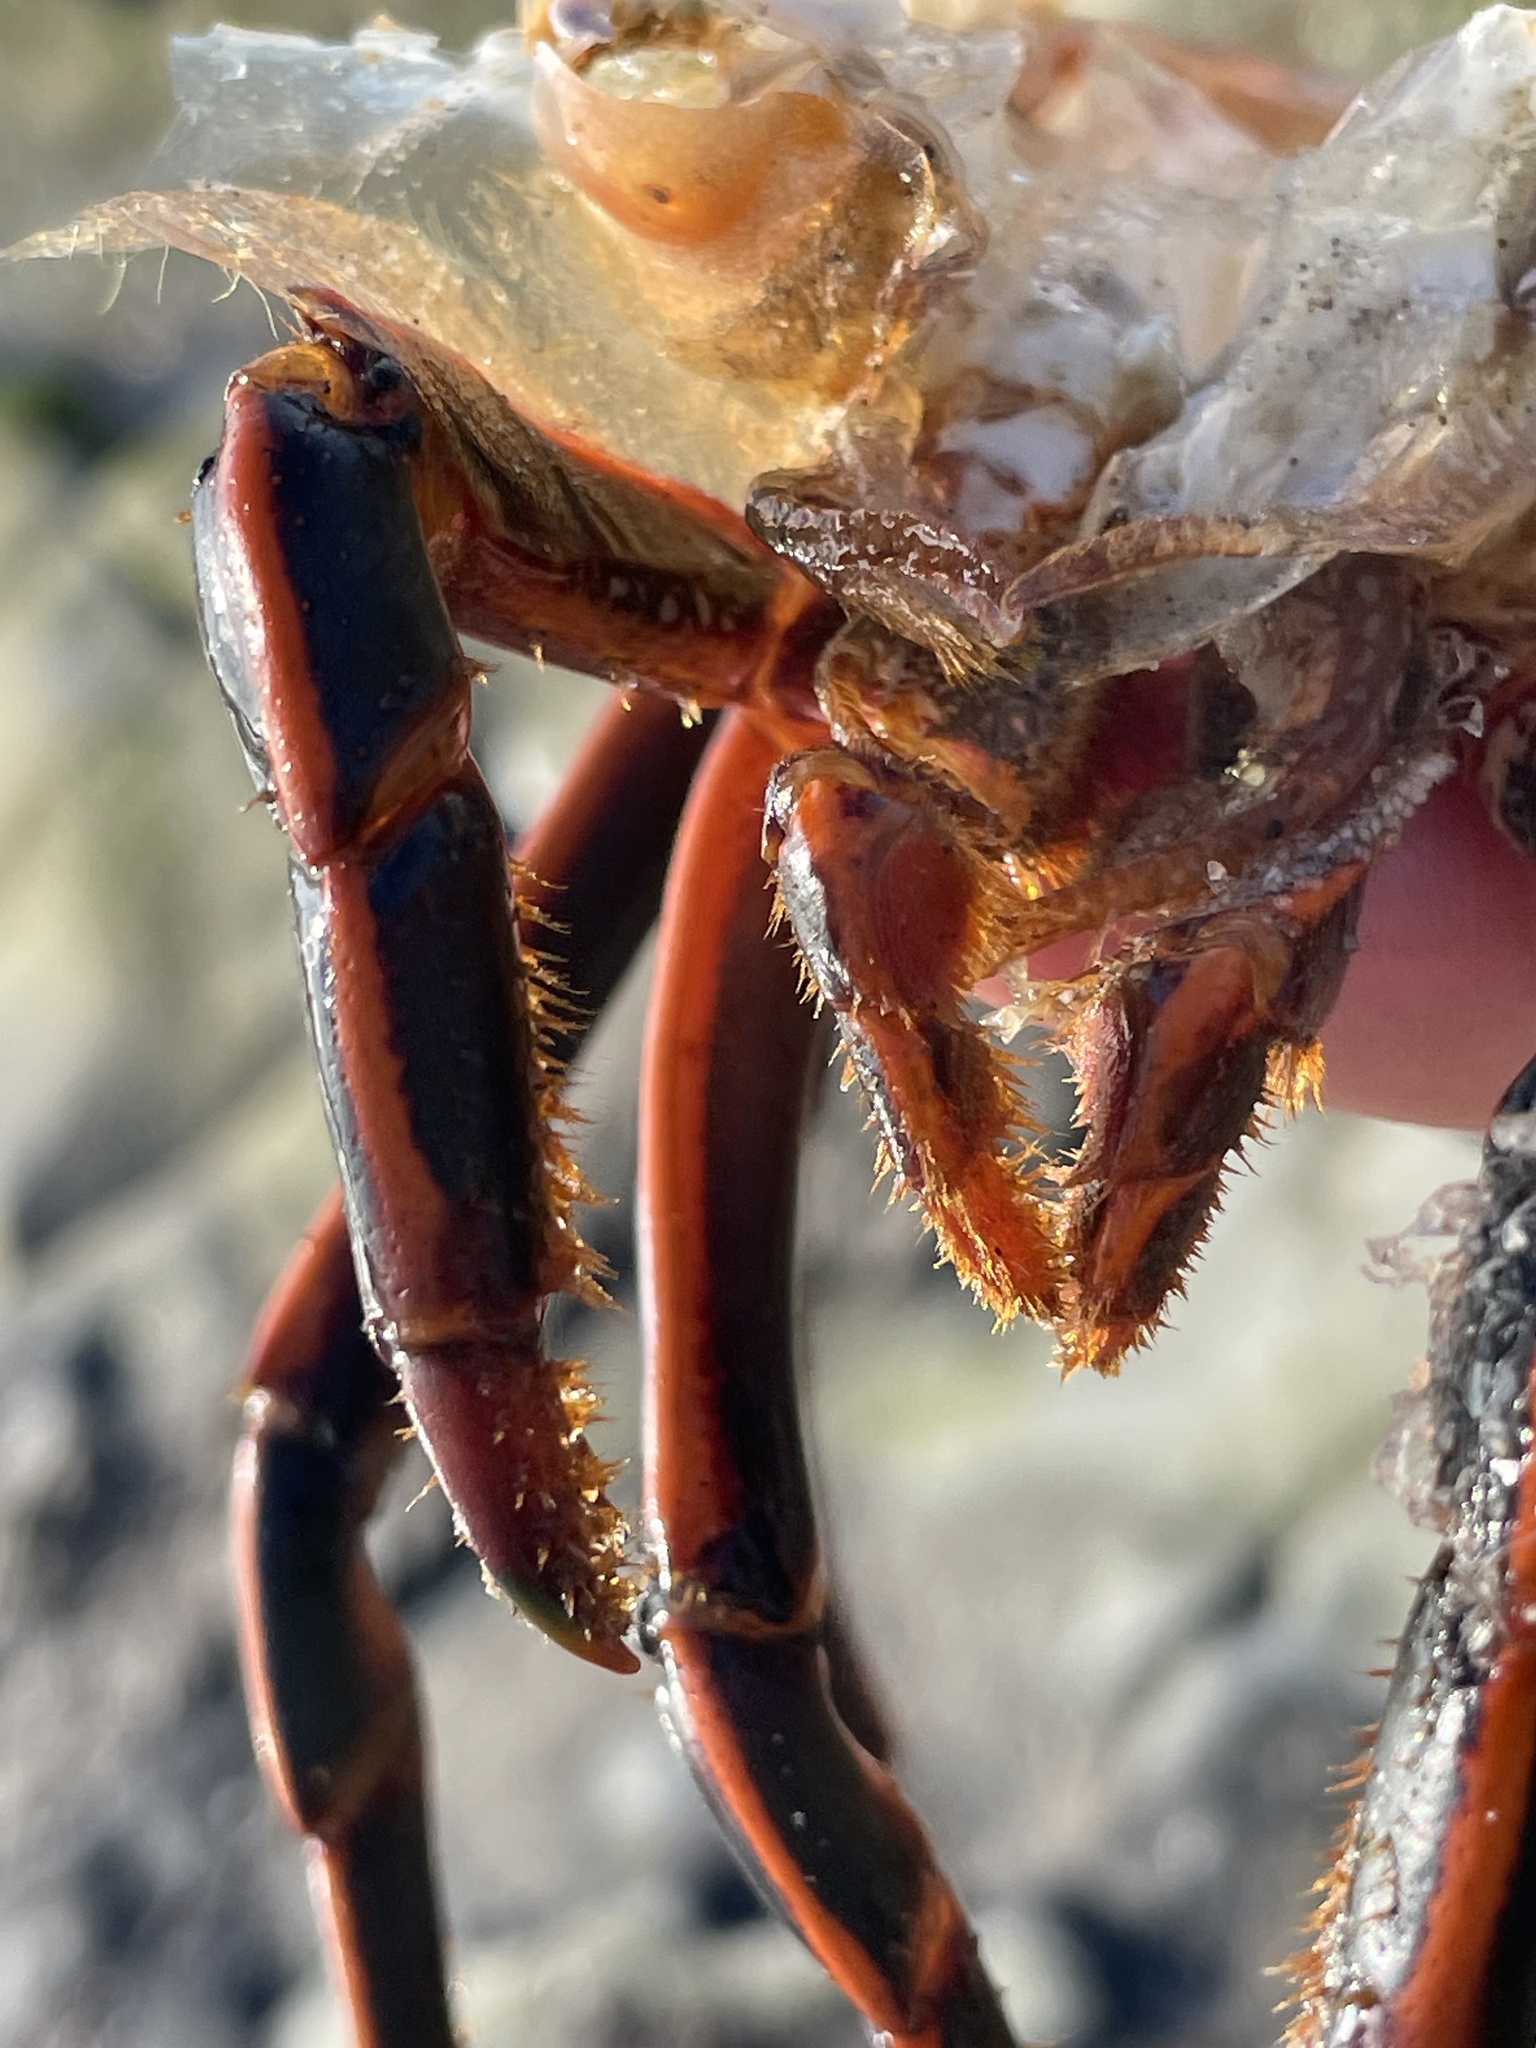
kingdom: Animalia
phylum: Arthropoda
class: Malacostraca
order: Decapoda
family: Palinuridae
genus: Panulirus
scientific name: Panulirus interruptus
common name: California spiny lobster
